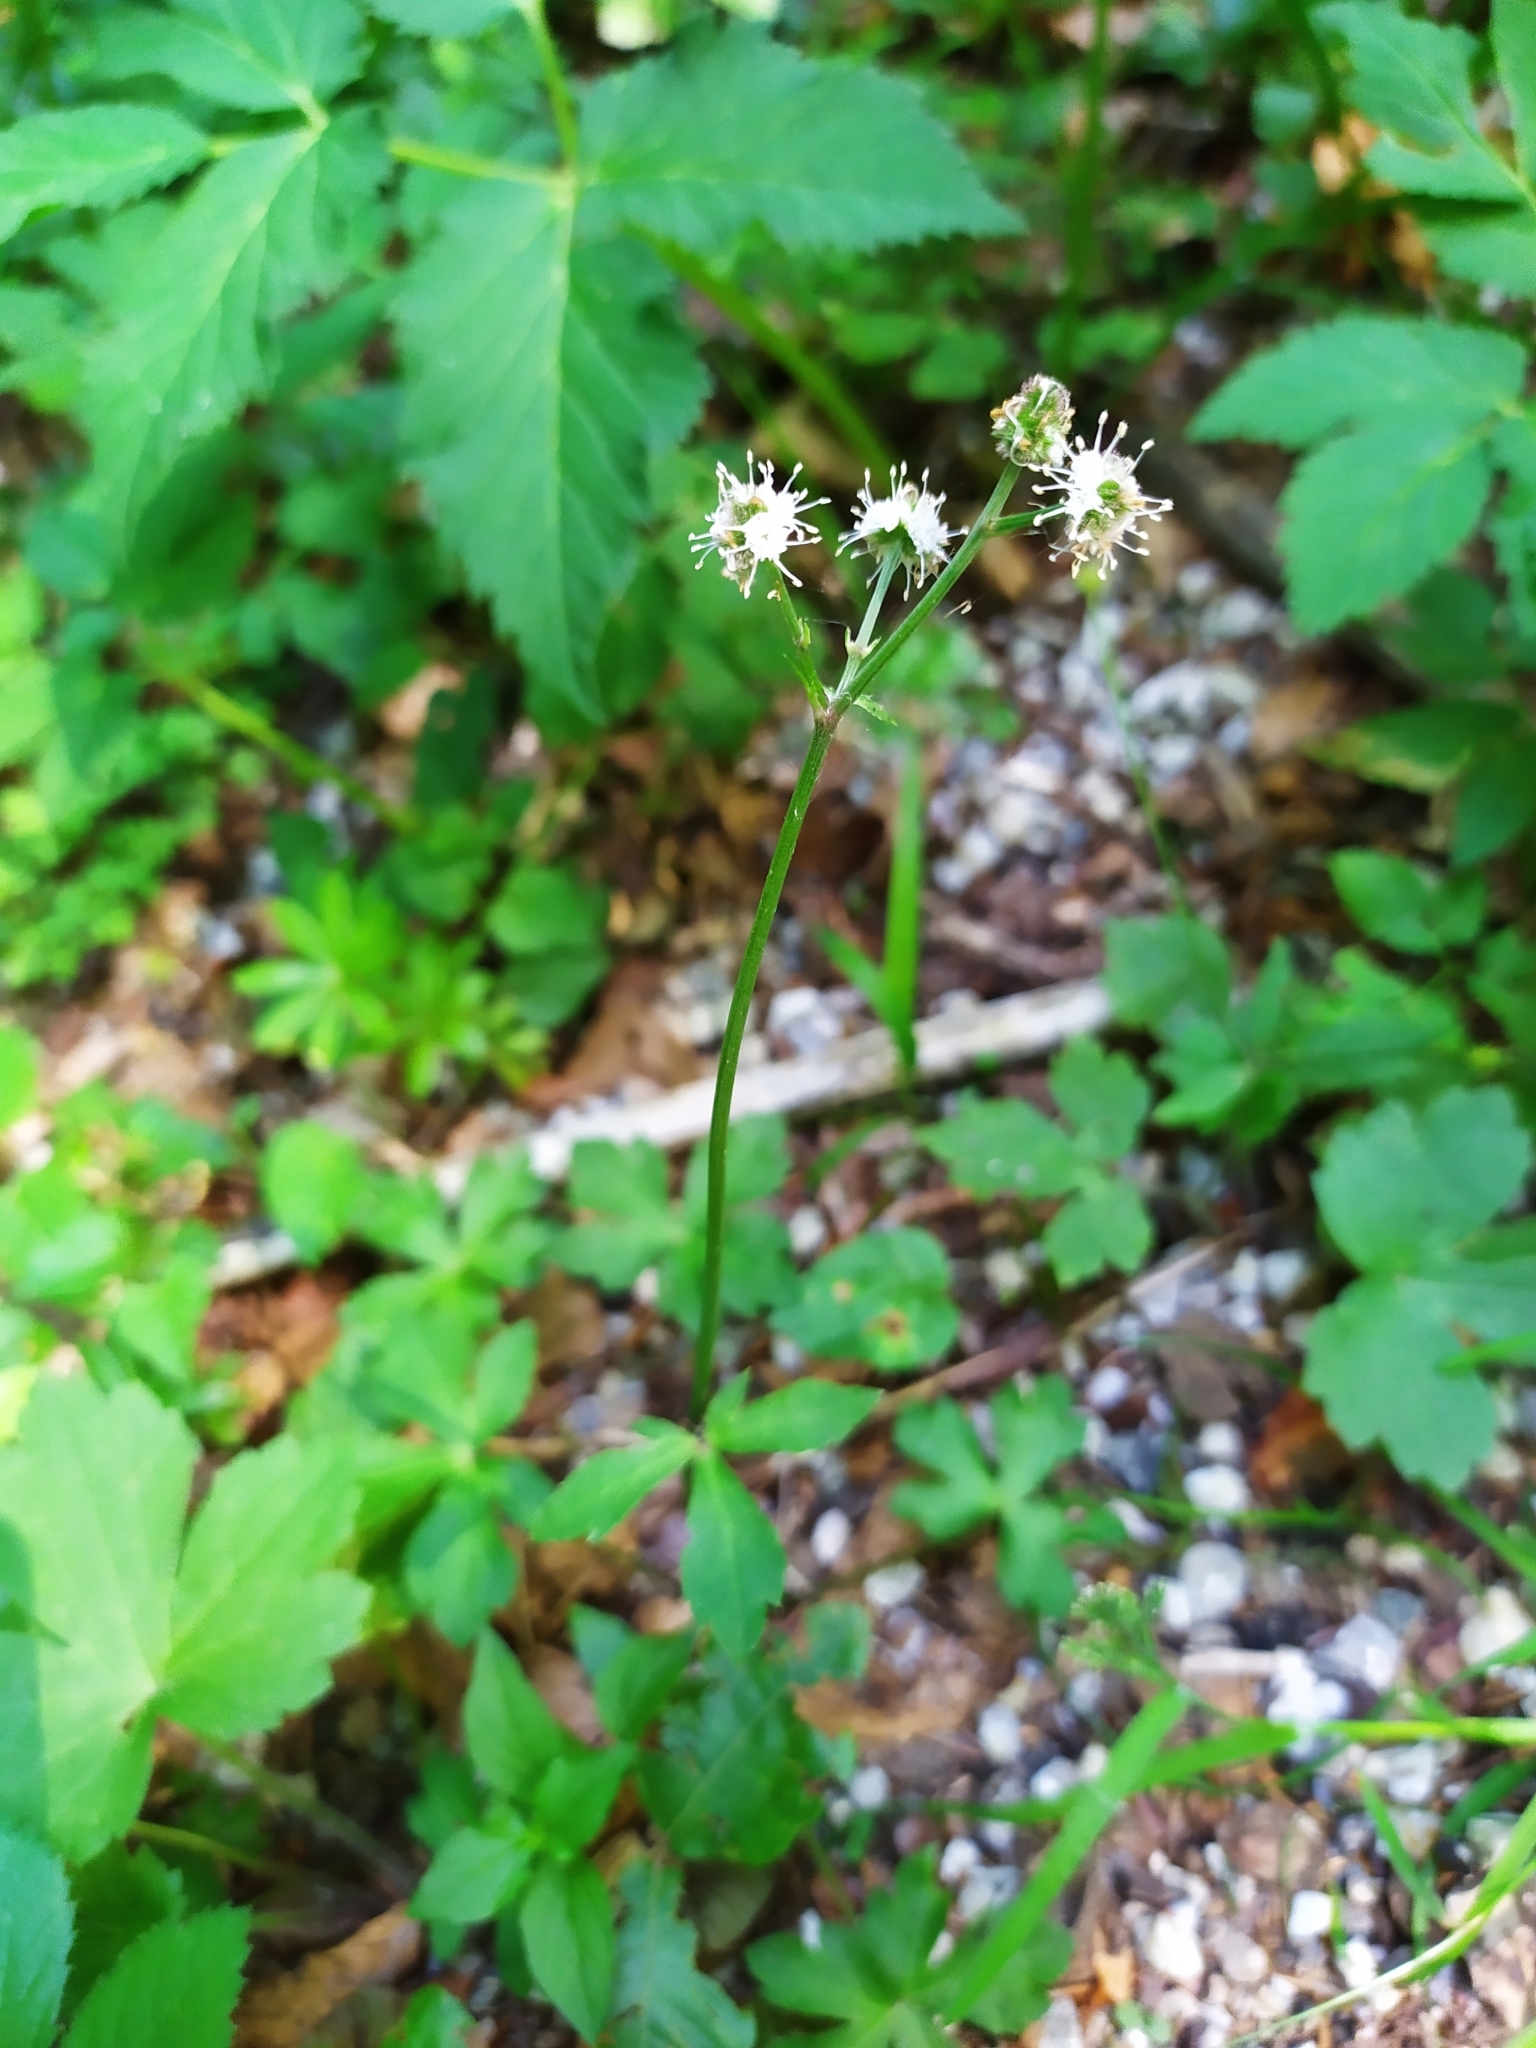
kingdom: Plantae
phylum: Tracheophyta
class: Magnoliopsida
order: Apiales
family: Apiaceae
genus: Sanicula
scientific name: Sanicula europaea
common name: Sanicle
